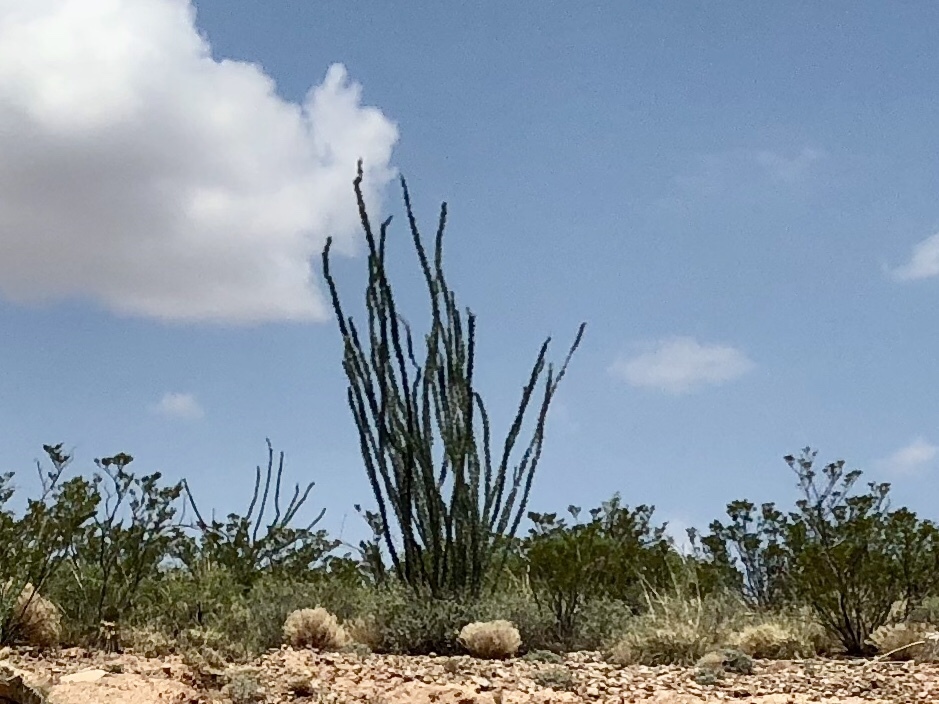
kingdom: Plantae
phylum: Tracheophyta
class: Magnoliopsida
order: Ericales
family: Fouquieriaceae
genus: Fouquieria
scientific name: Fouquieria splendens
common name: Vine-cactus
